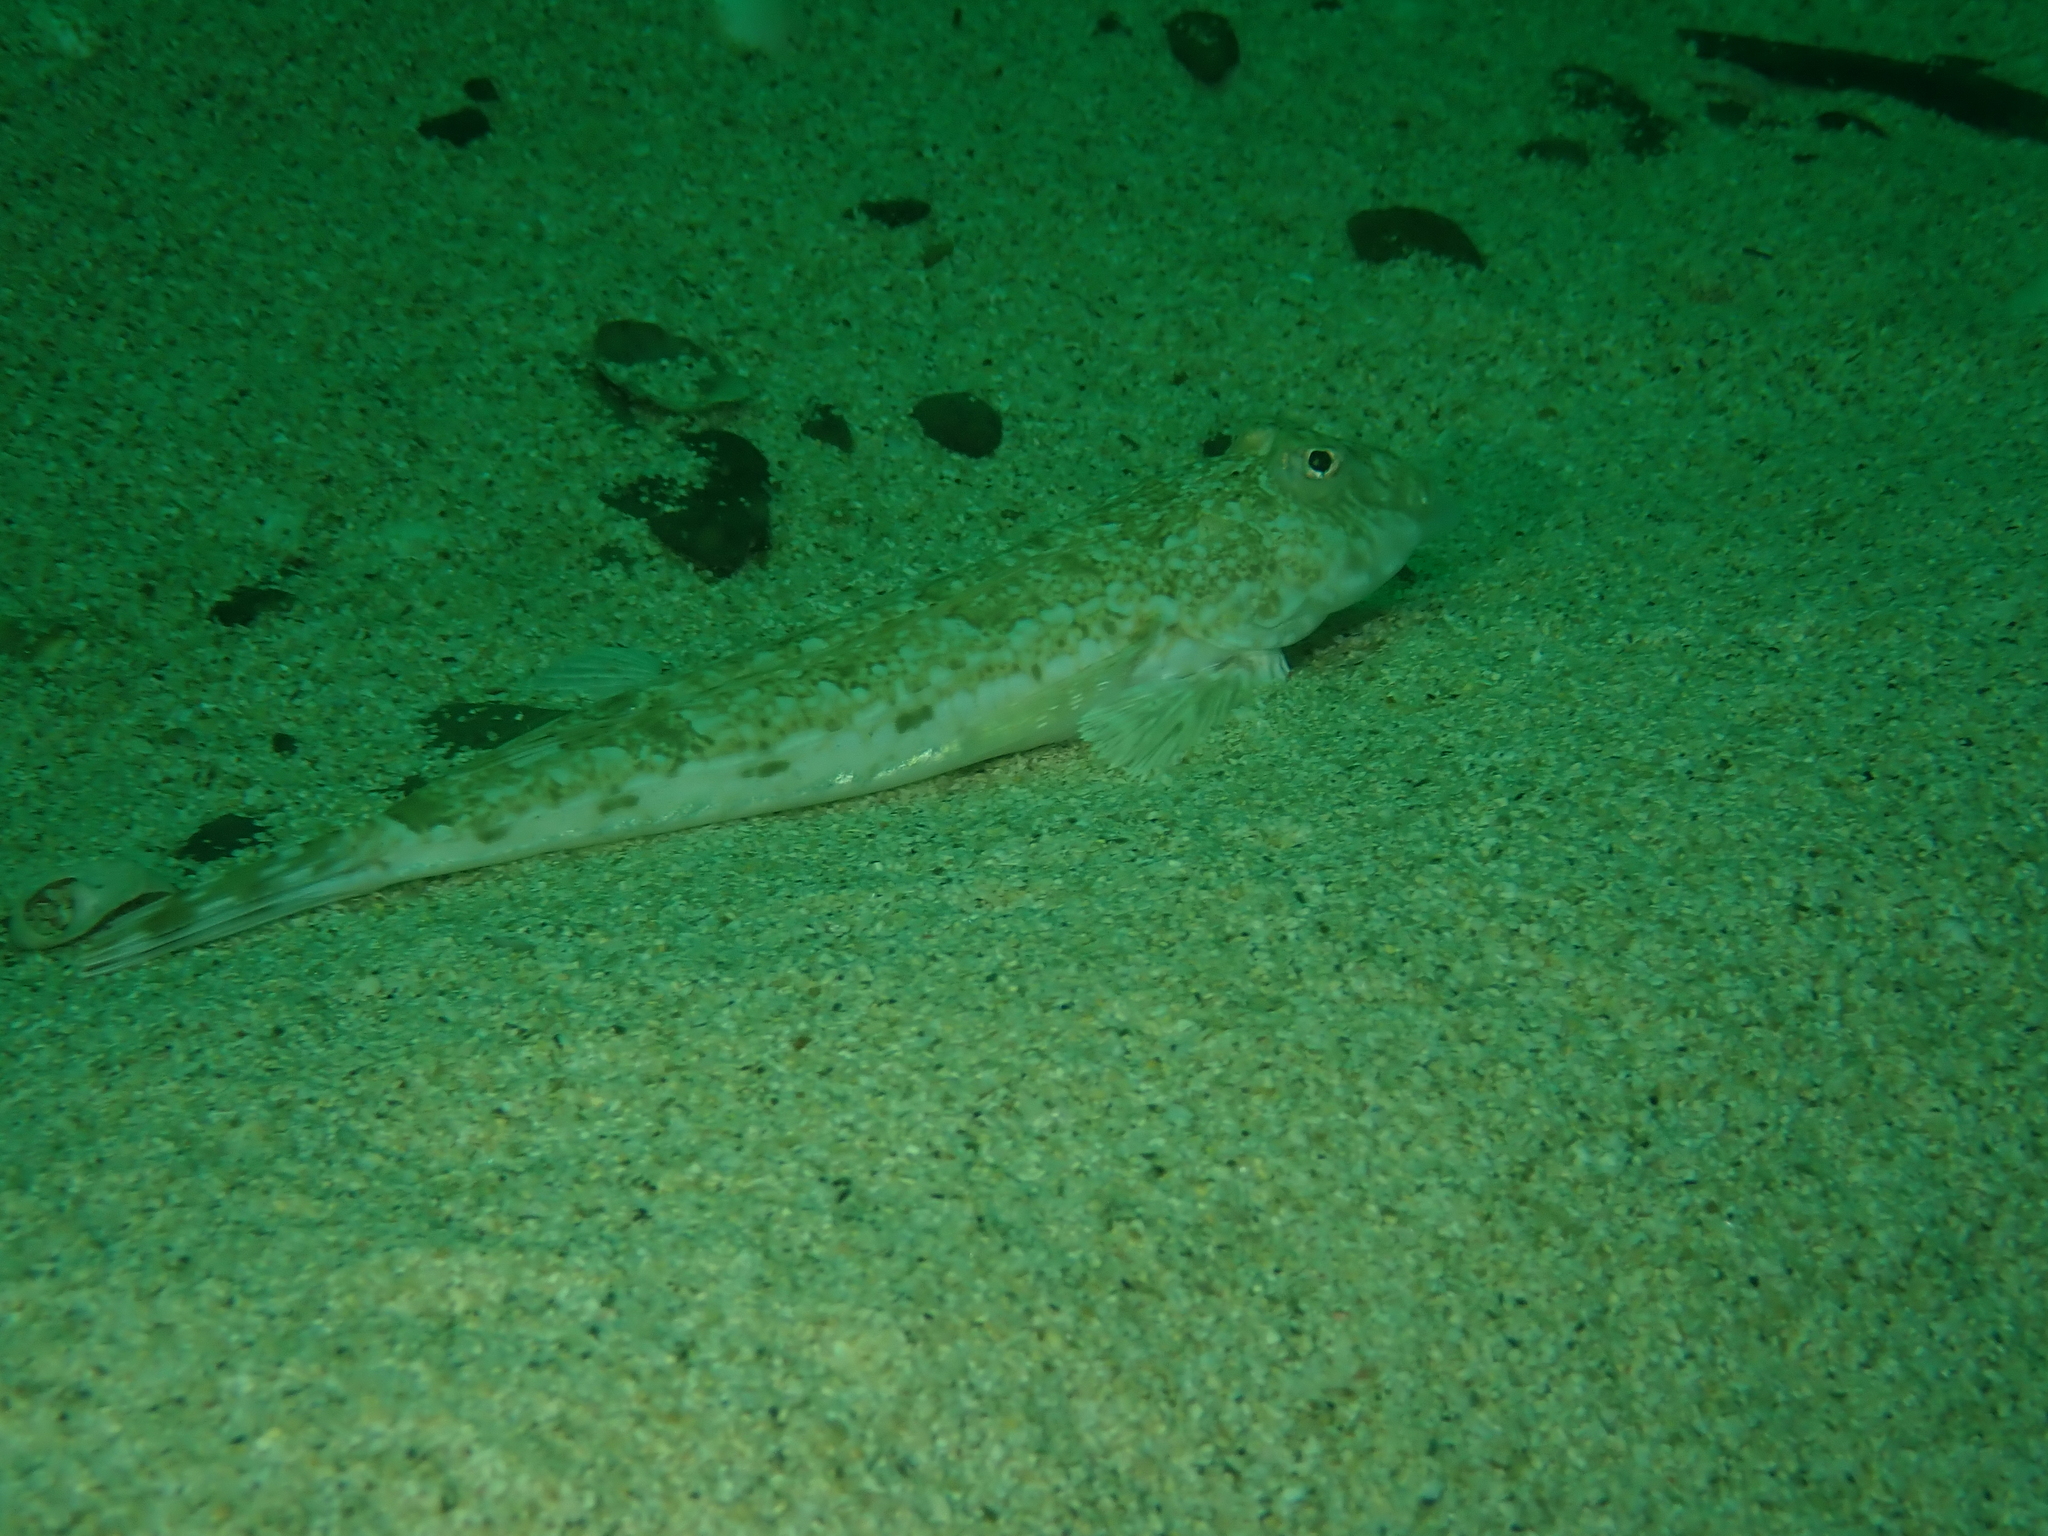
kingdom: Animalia
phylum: Chordata
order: Perciformes
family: Callionymidae
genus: Callionymus
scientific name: Callionymus lyra
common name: Dragonet
